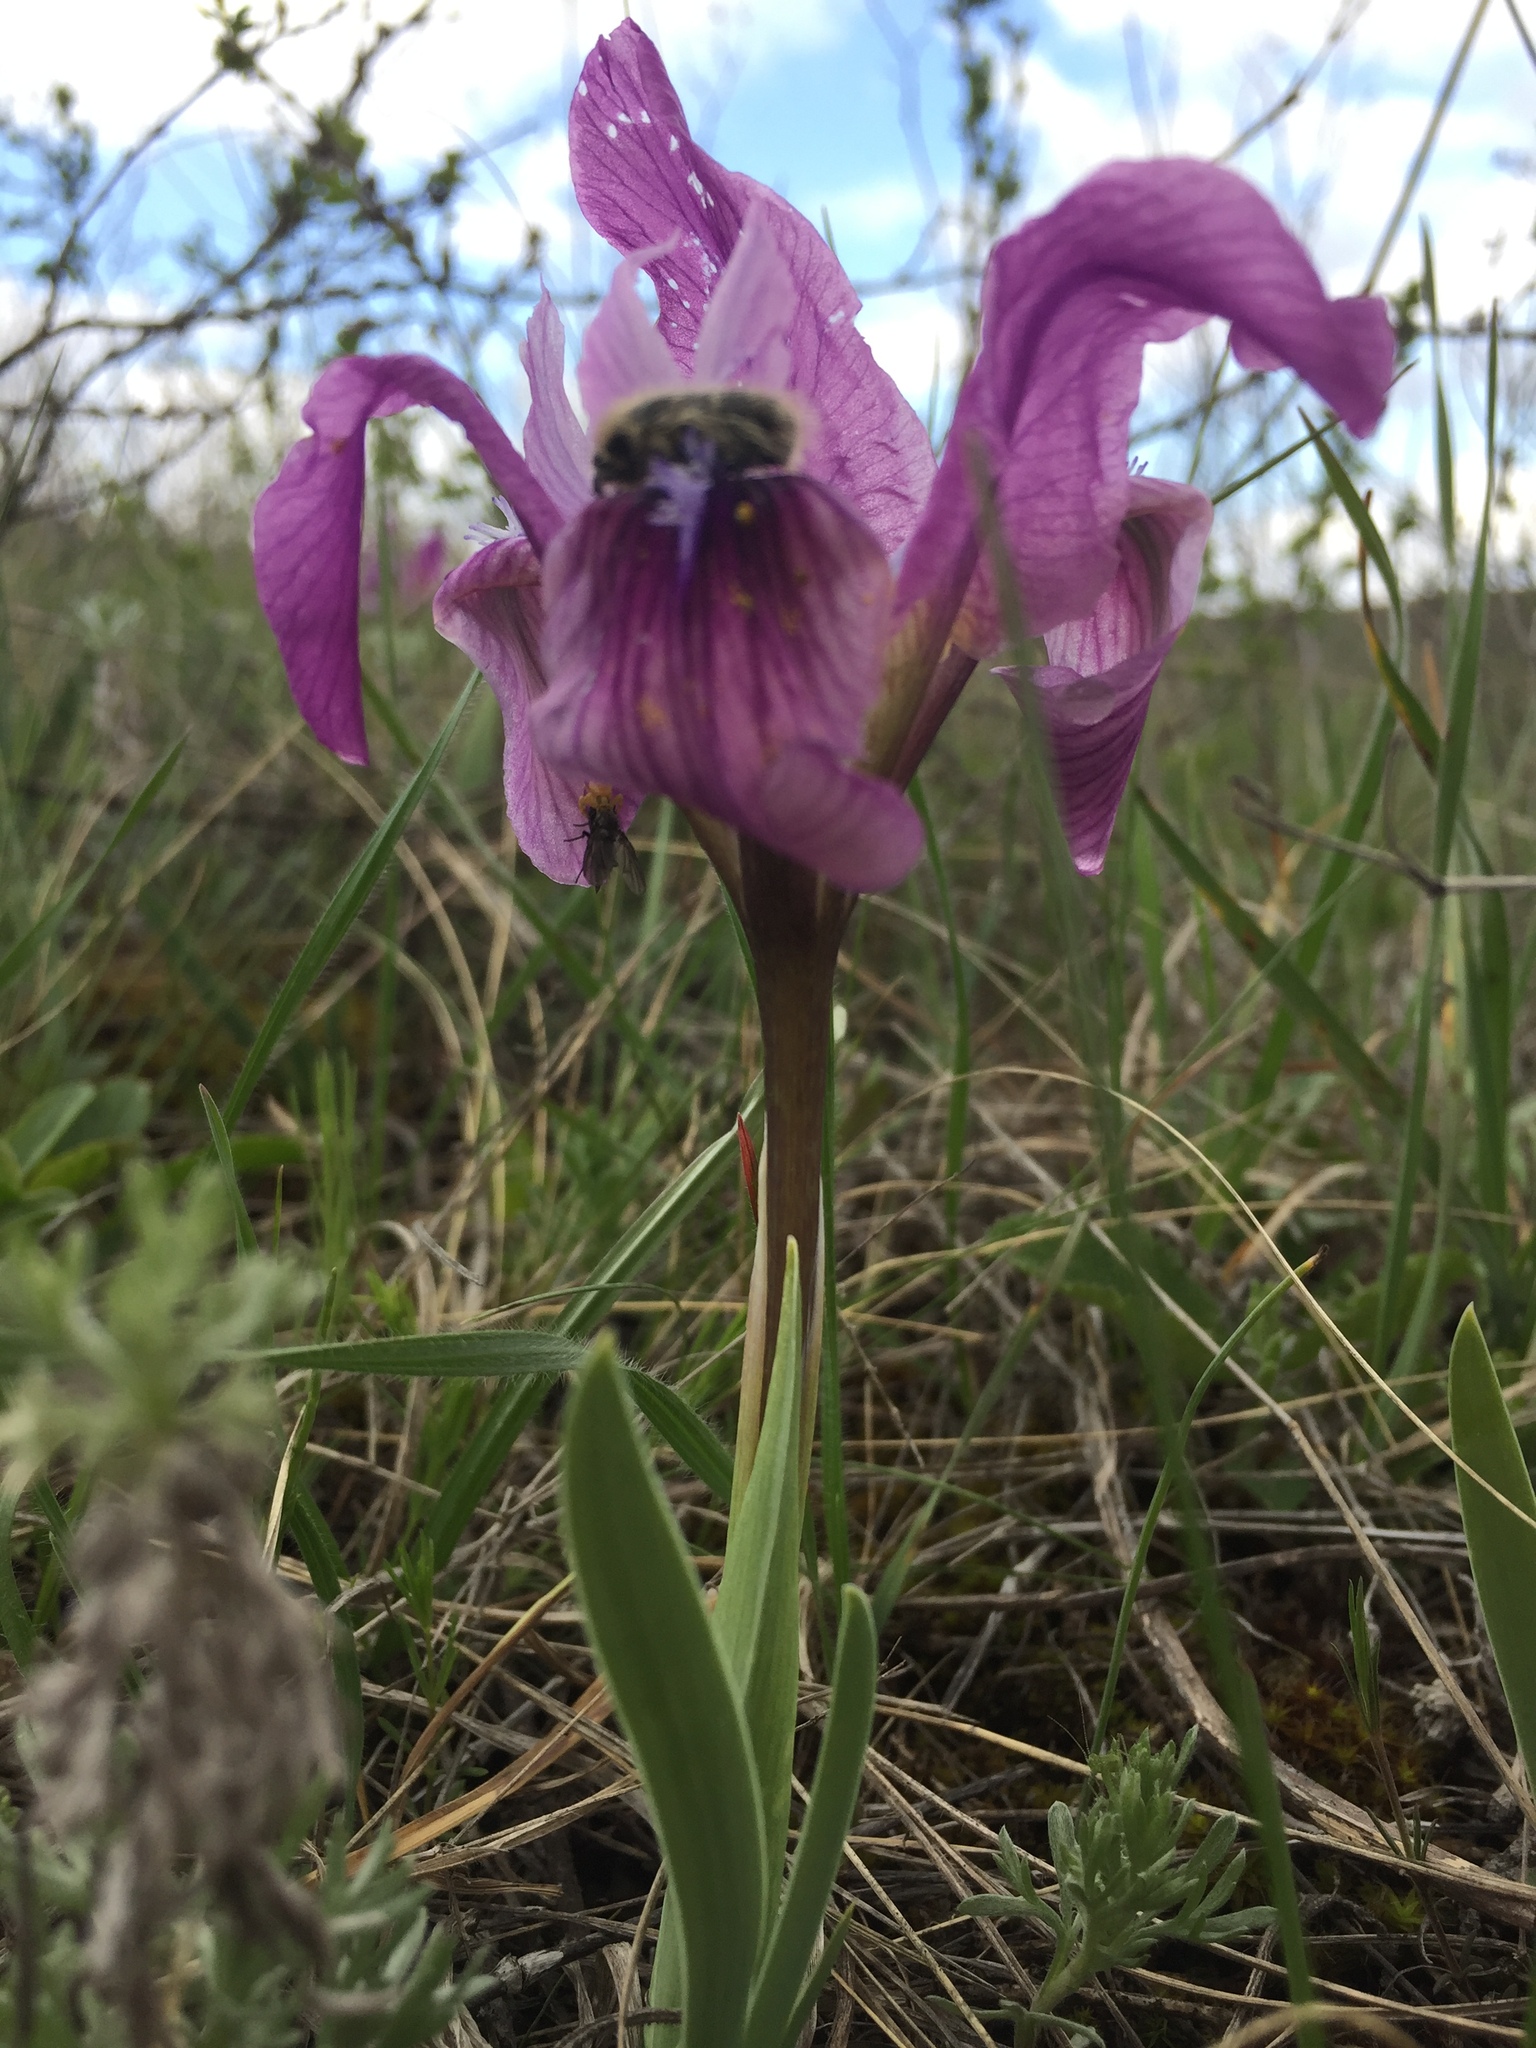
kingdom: Plantae
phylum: Tracheophyta
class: Liliopsida
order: Asparagales
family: Iridaceae
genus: Iris
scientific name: Iris pumila
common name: Dwarf iris
